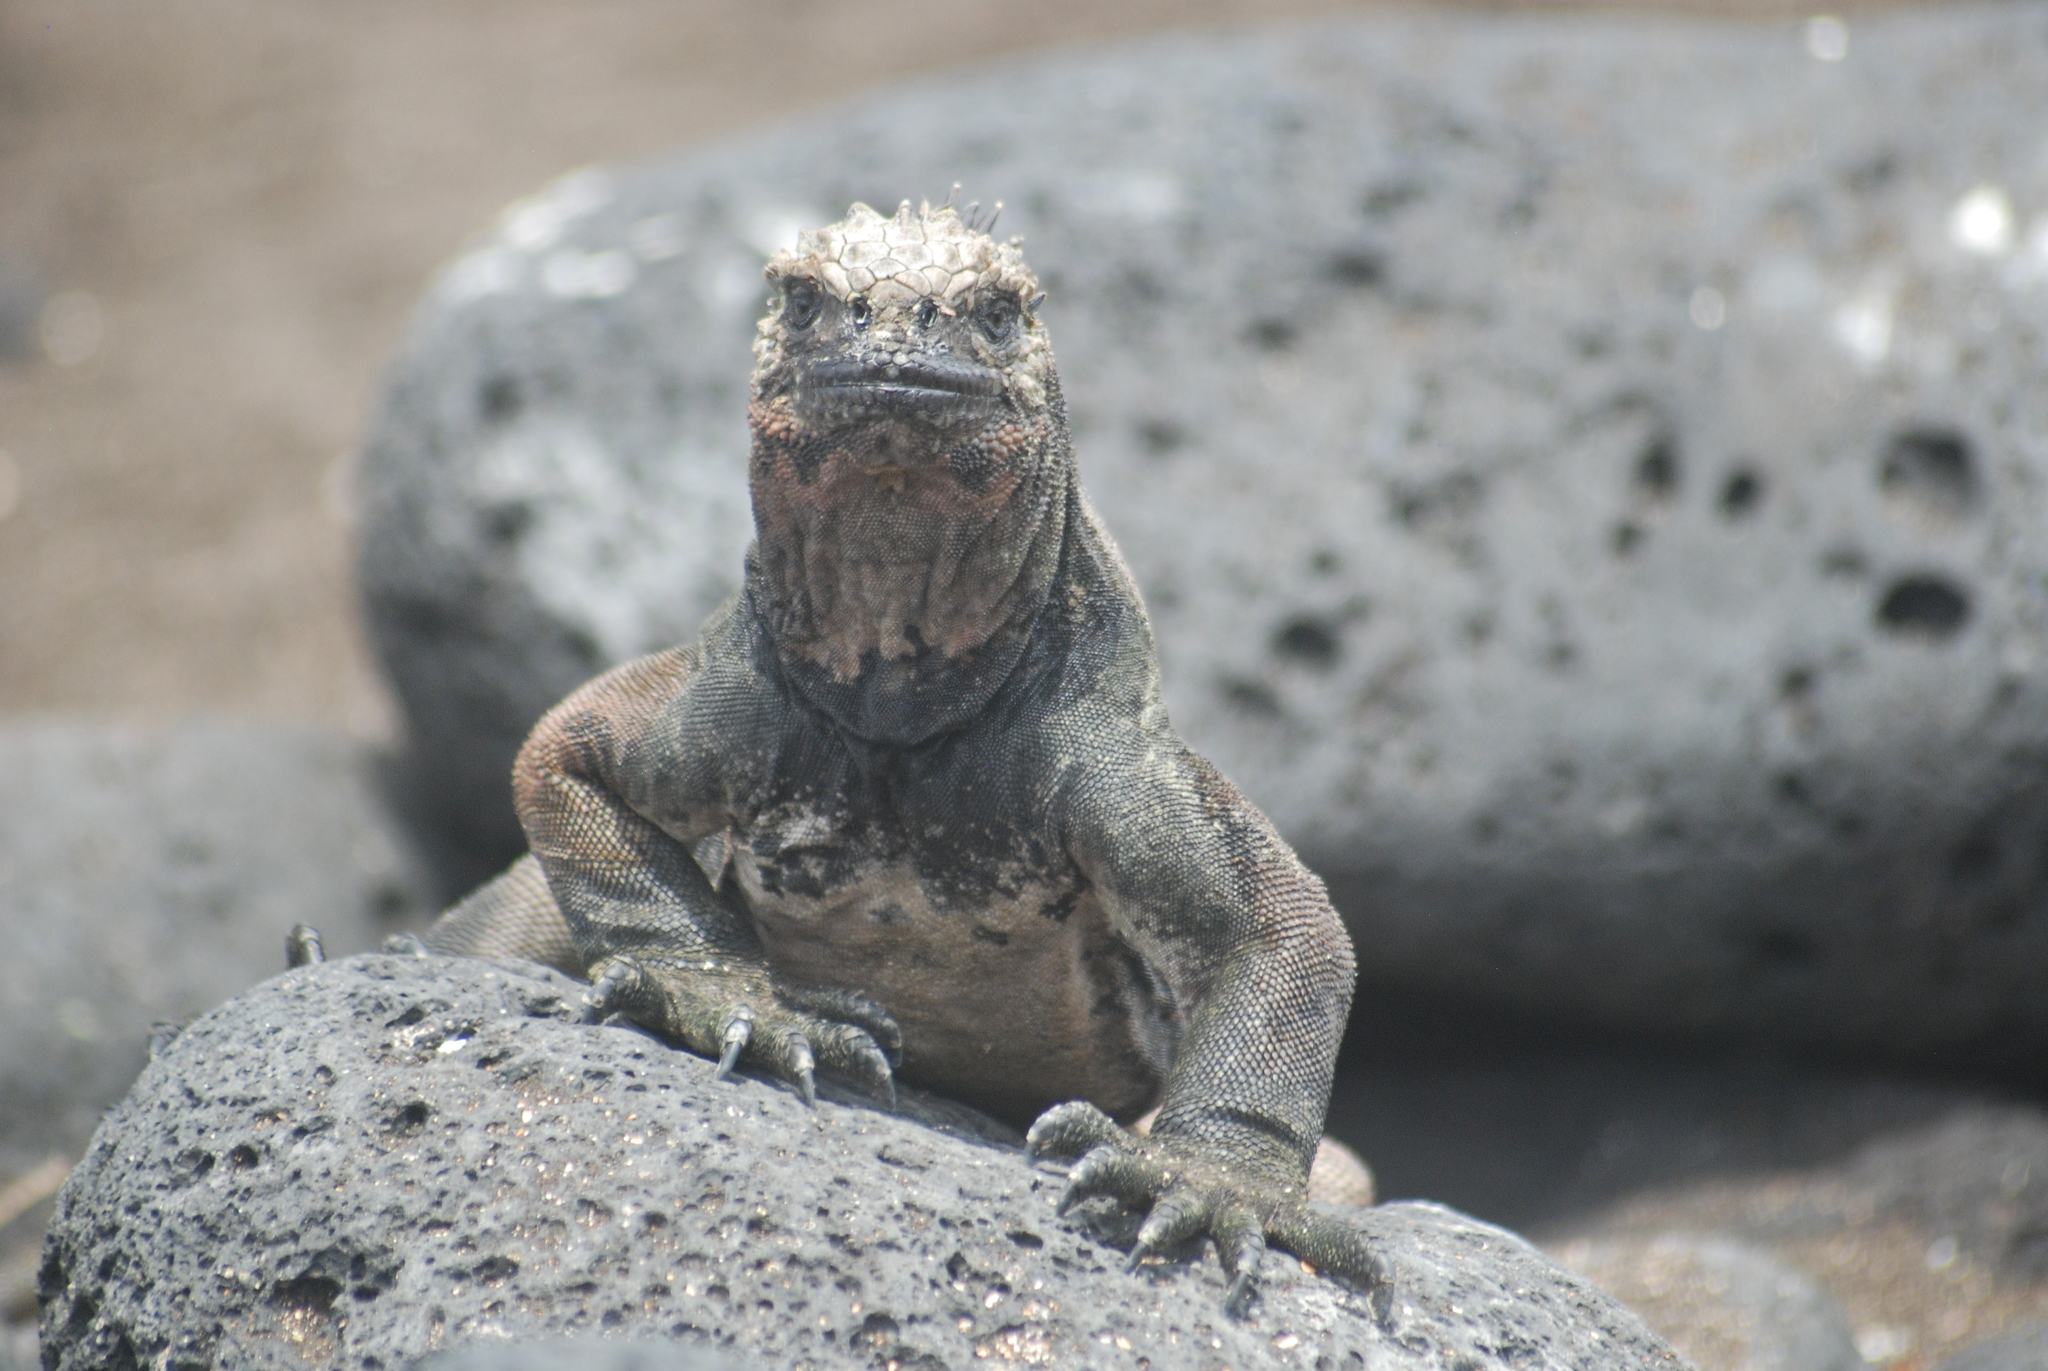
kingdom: Animalia
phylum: Chordata
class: Squamata
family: Iguanidae
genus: Amblyrhynchus
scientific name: Amblyrhynchus cristatus
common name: Marine iguana
